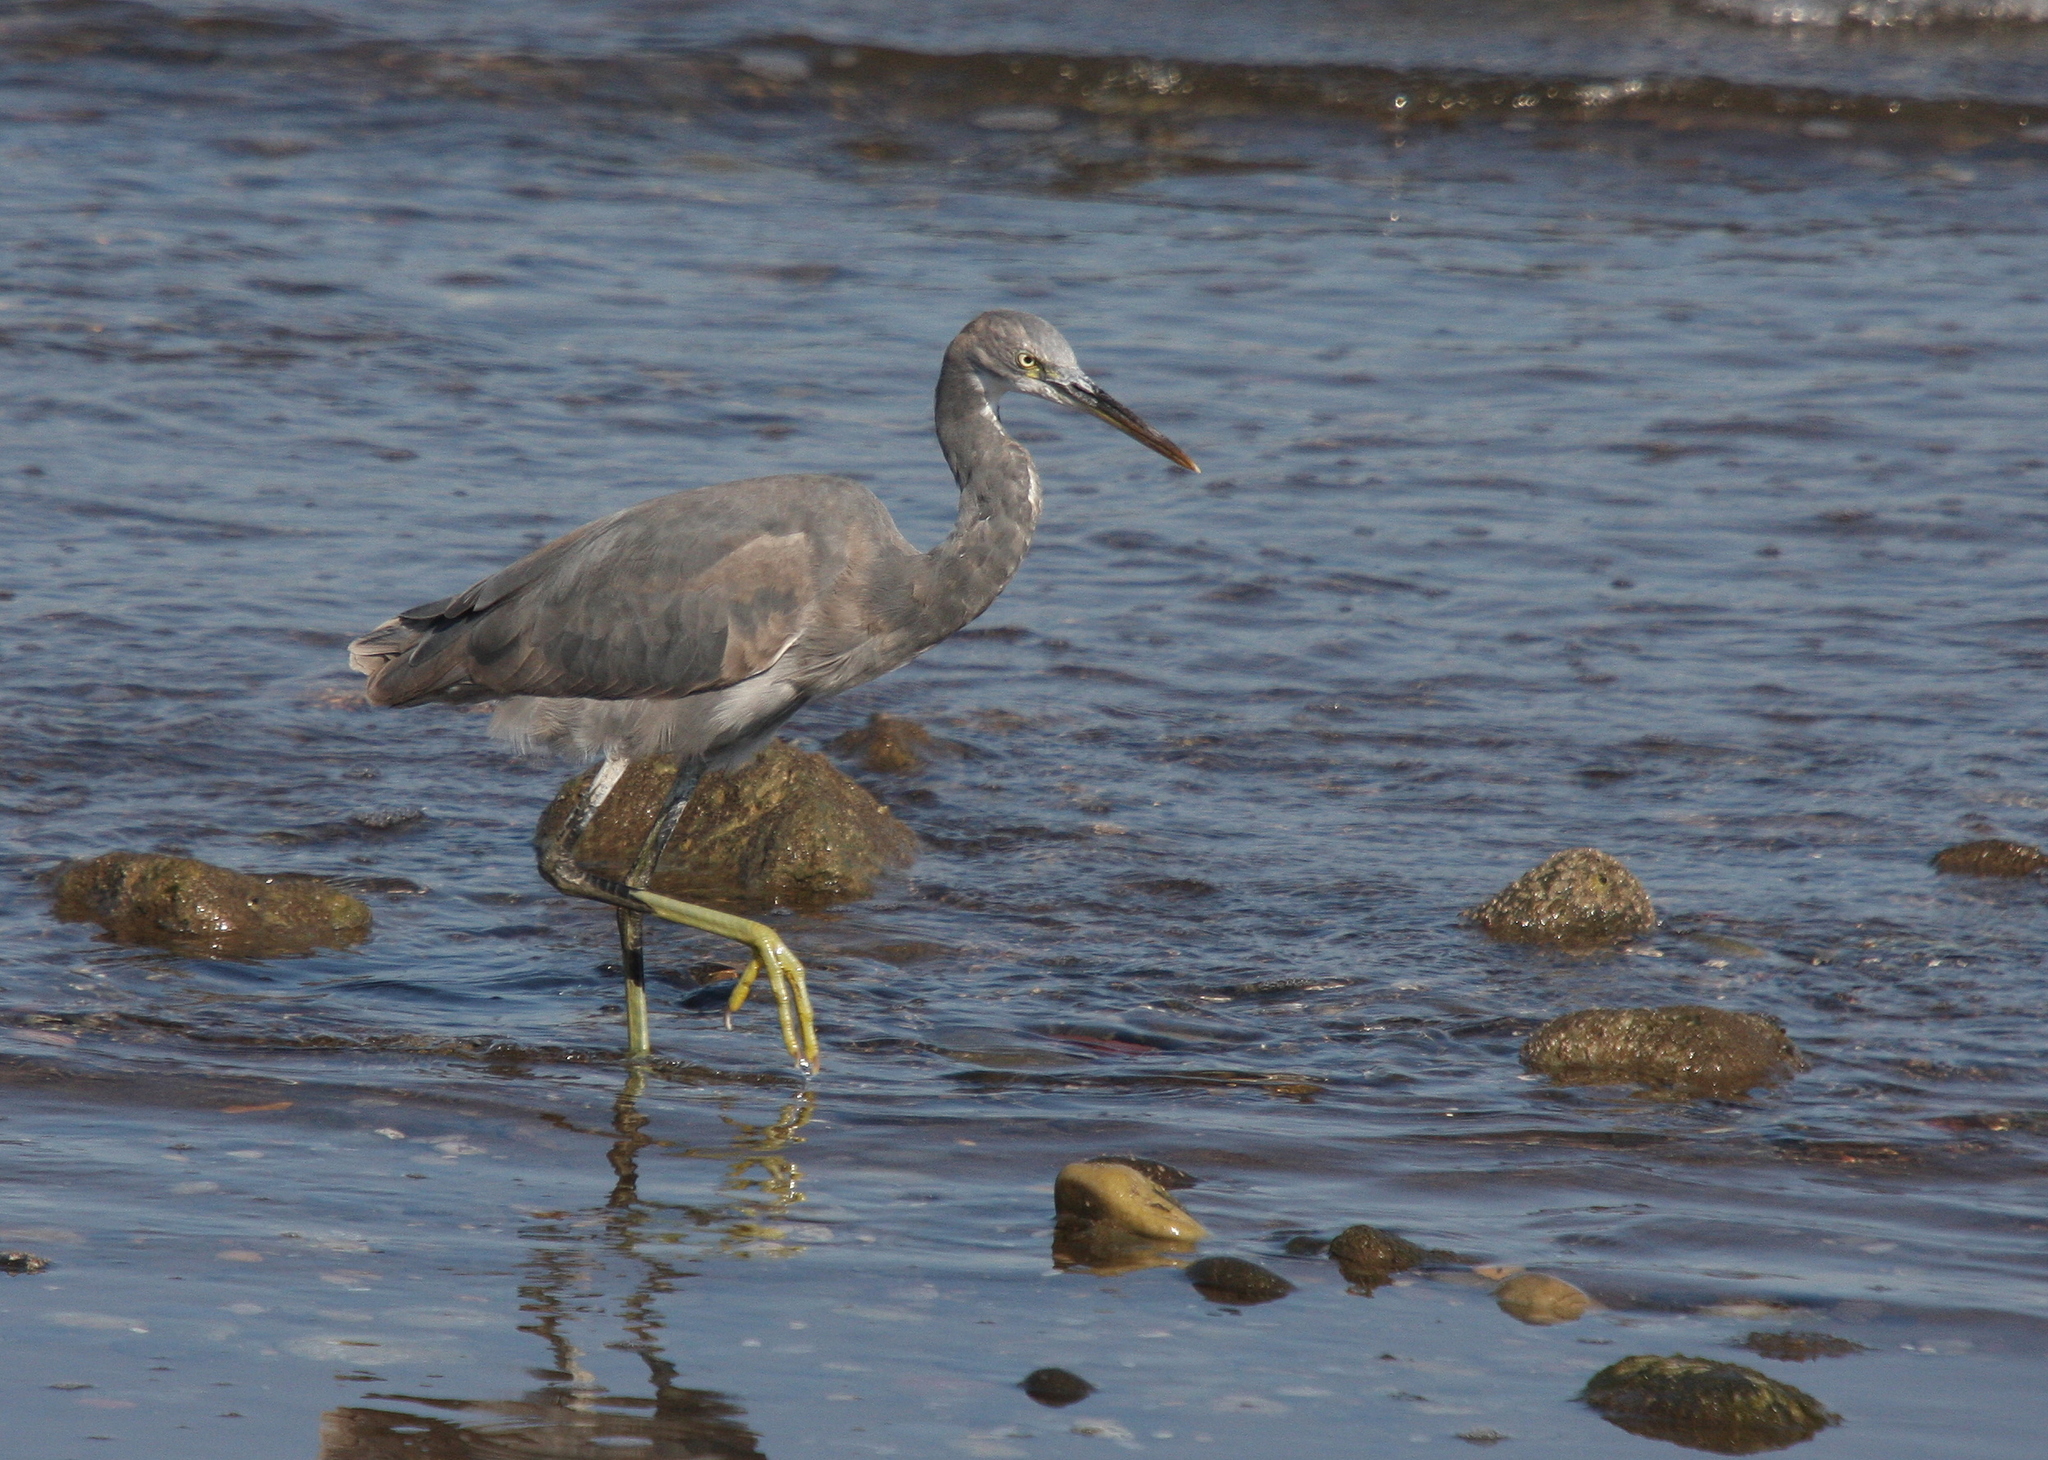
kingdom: Animalia
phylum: Chordata
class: Aves
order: Pelecaniformes
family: Ardeidae
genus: Egretta
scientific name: Egretta gularis
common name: Western reef-heron
